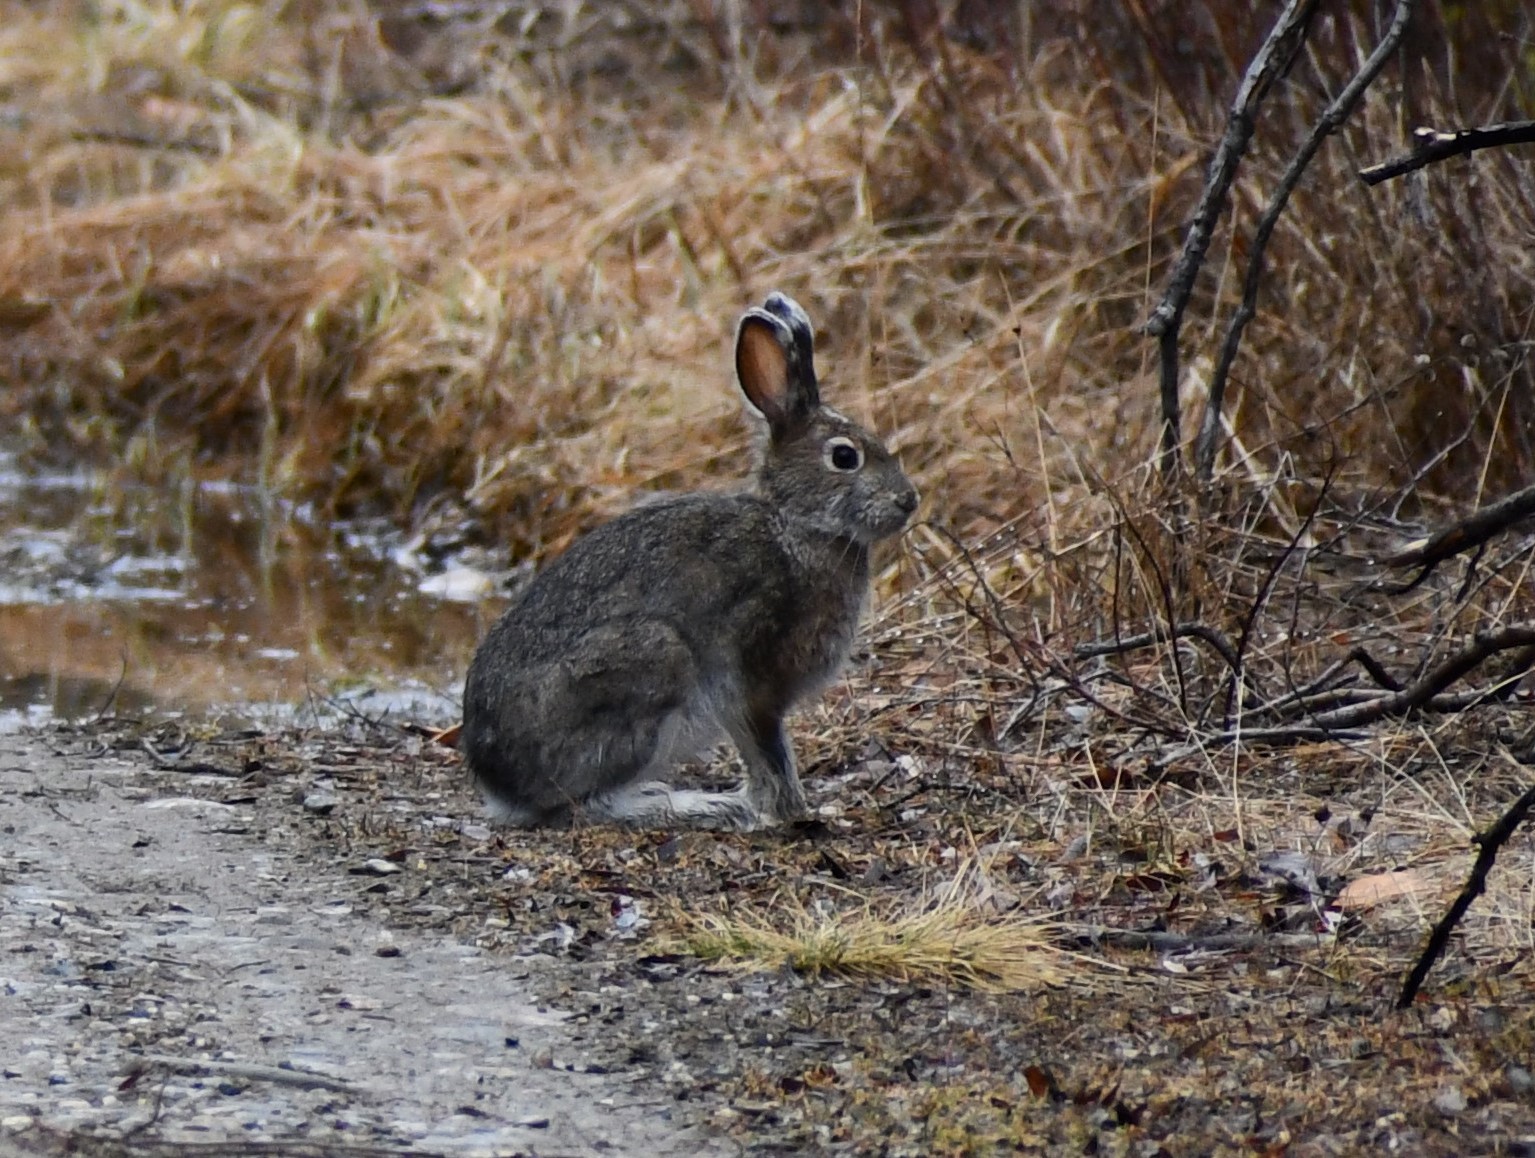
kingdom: Animalia
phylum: Chordata
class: Mammalia
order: Lagomorpha
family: Leporidae
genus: Lepus
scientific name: Lepus americanus
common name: Snowshoe hare
